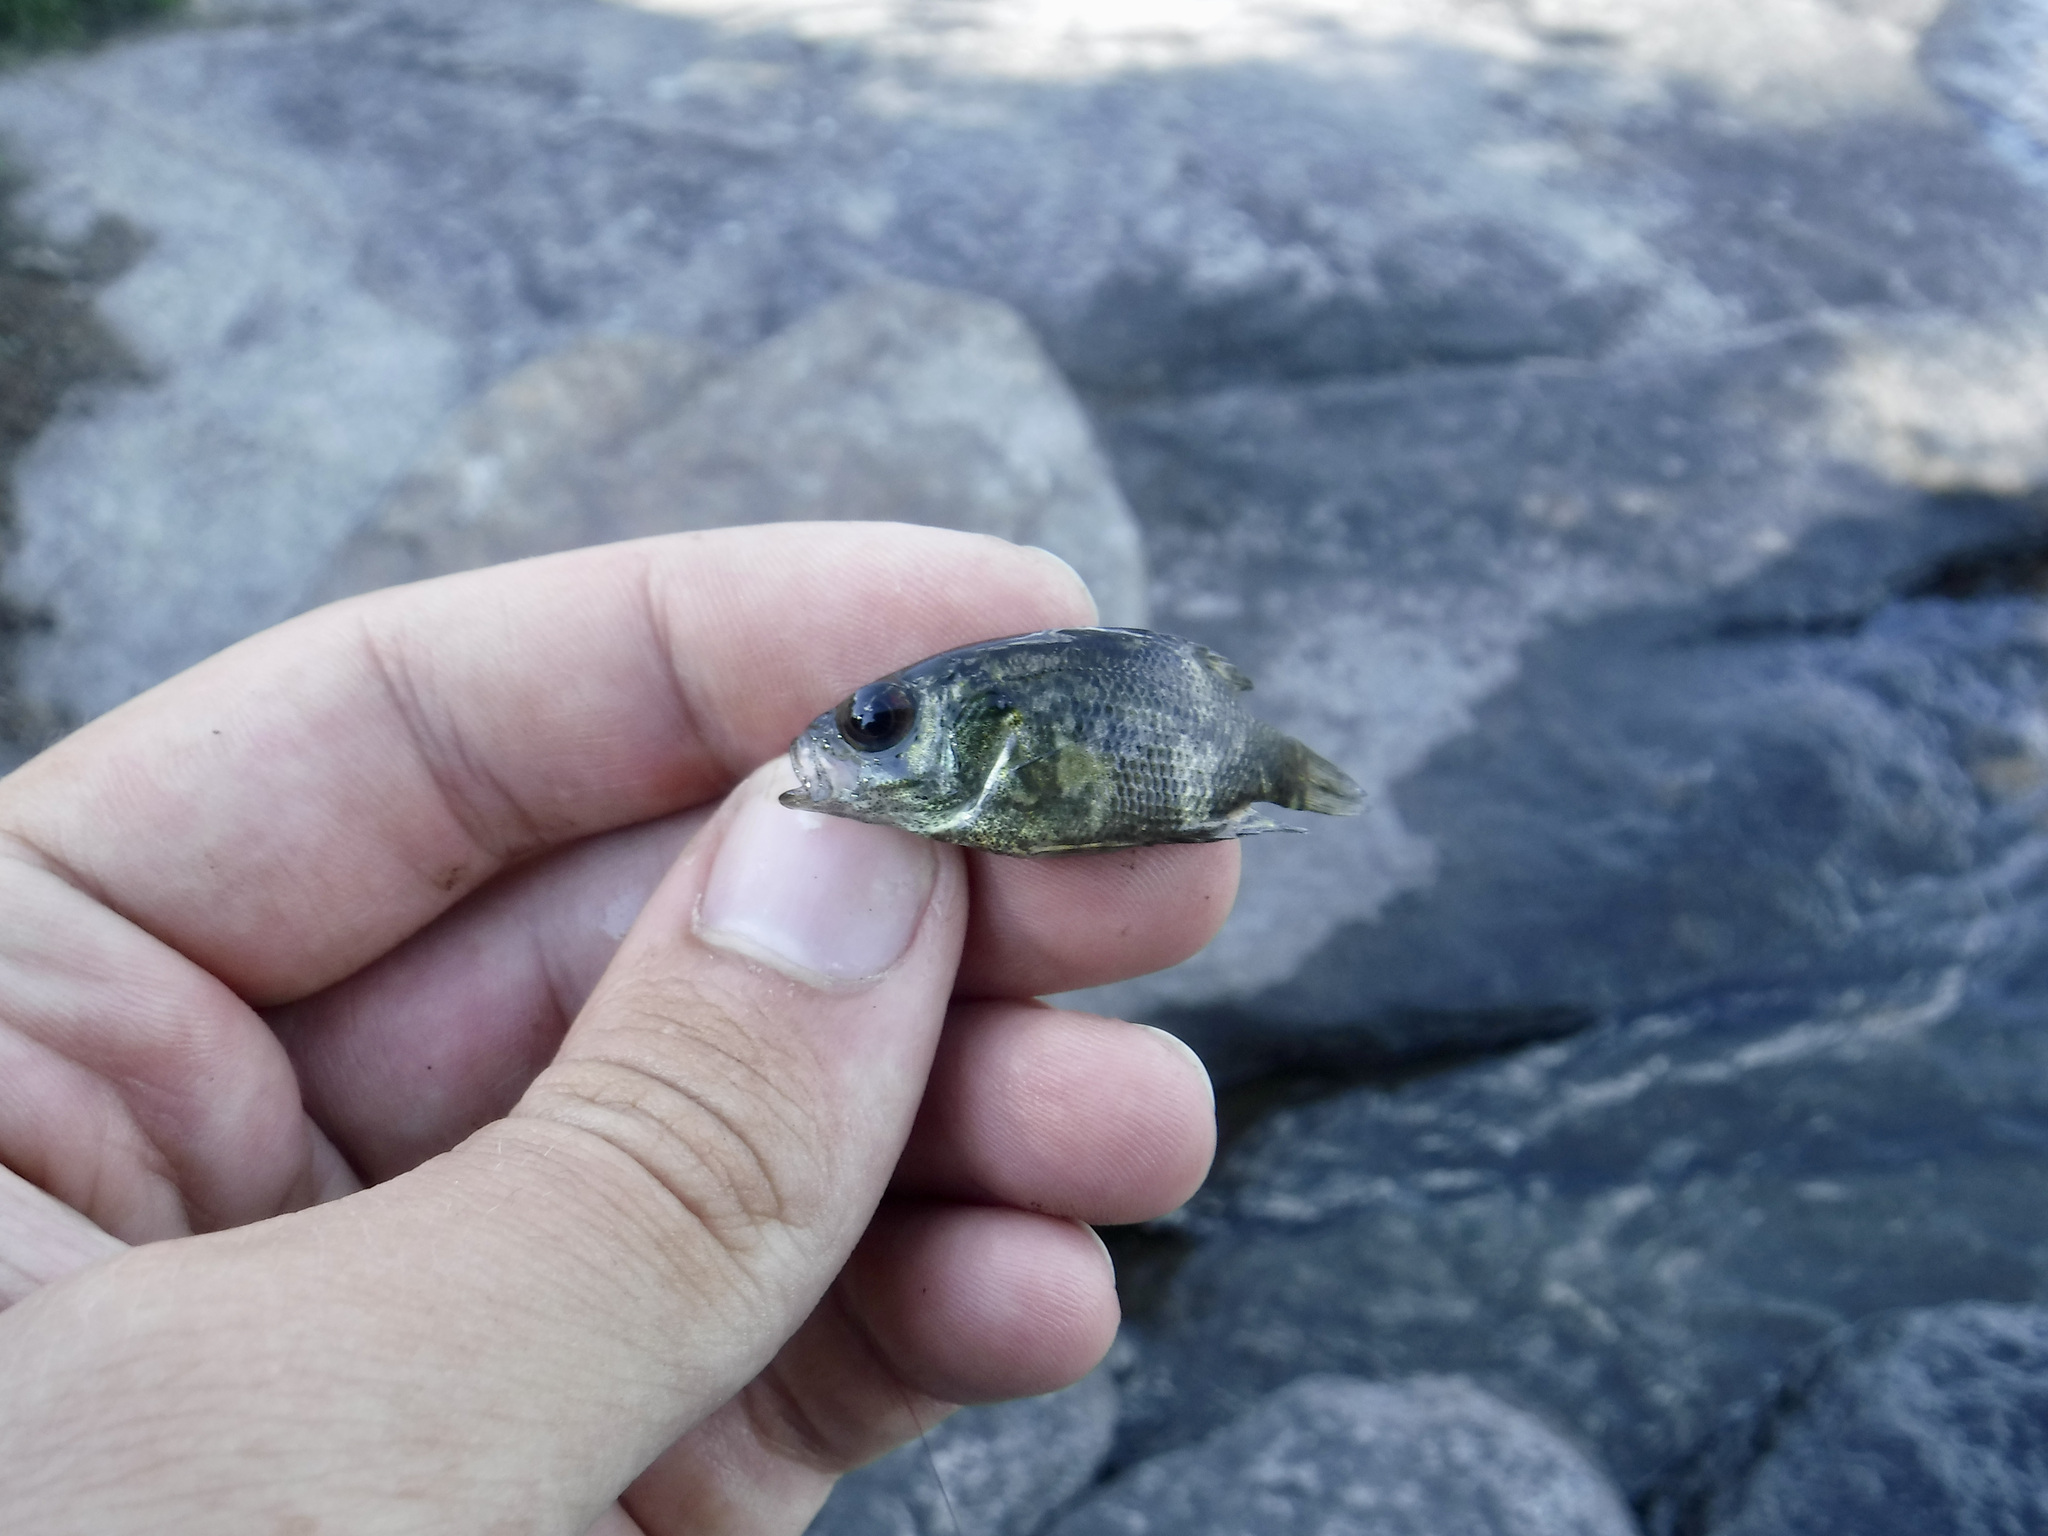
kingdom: Animalia
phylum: Chordata
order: Perciformes
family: Centrarchidae
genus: Ambloplites
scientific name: Ambloplites rupestris
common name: Rock bass
